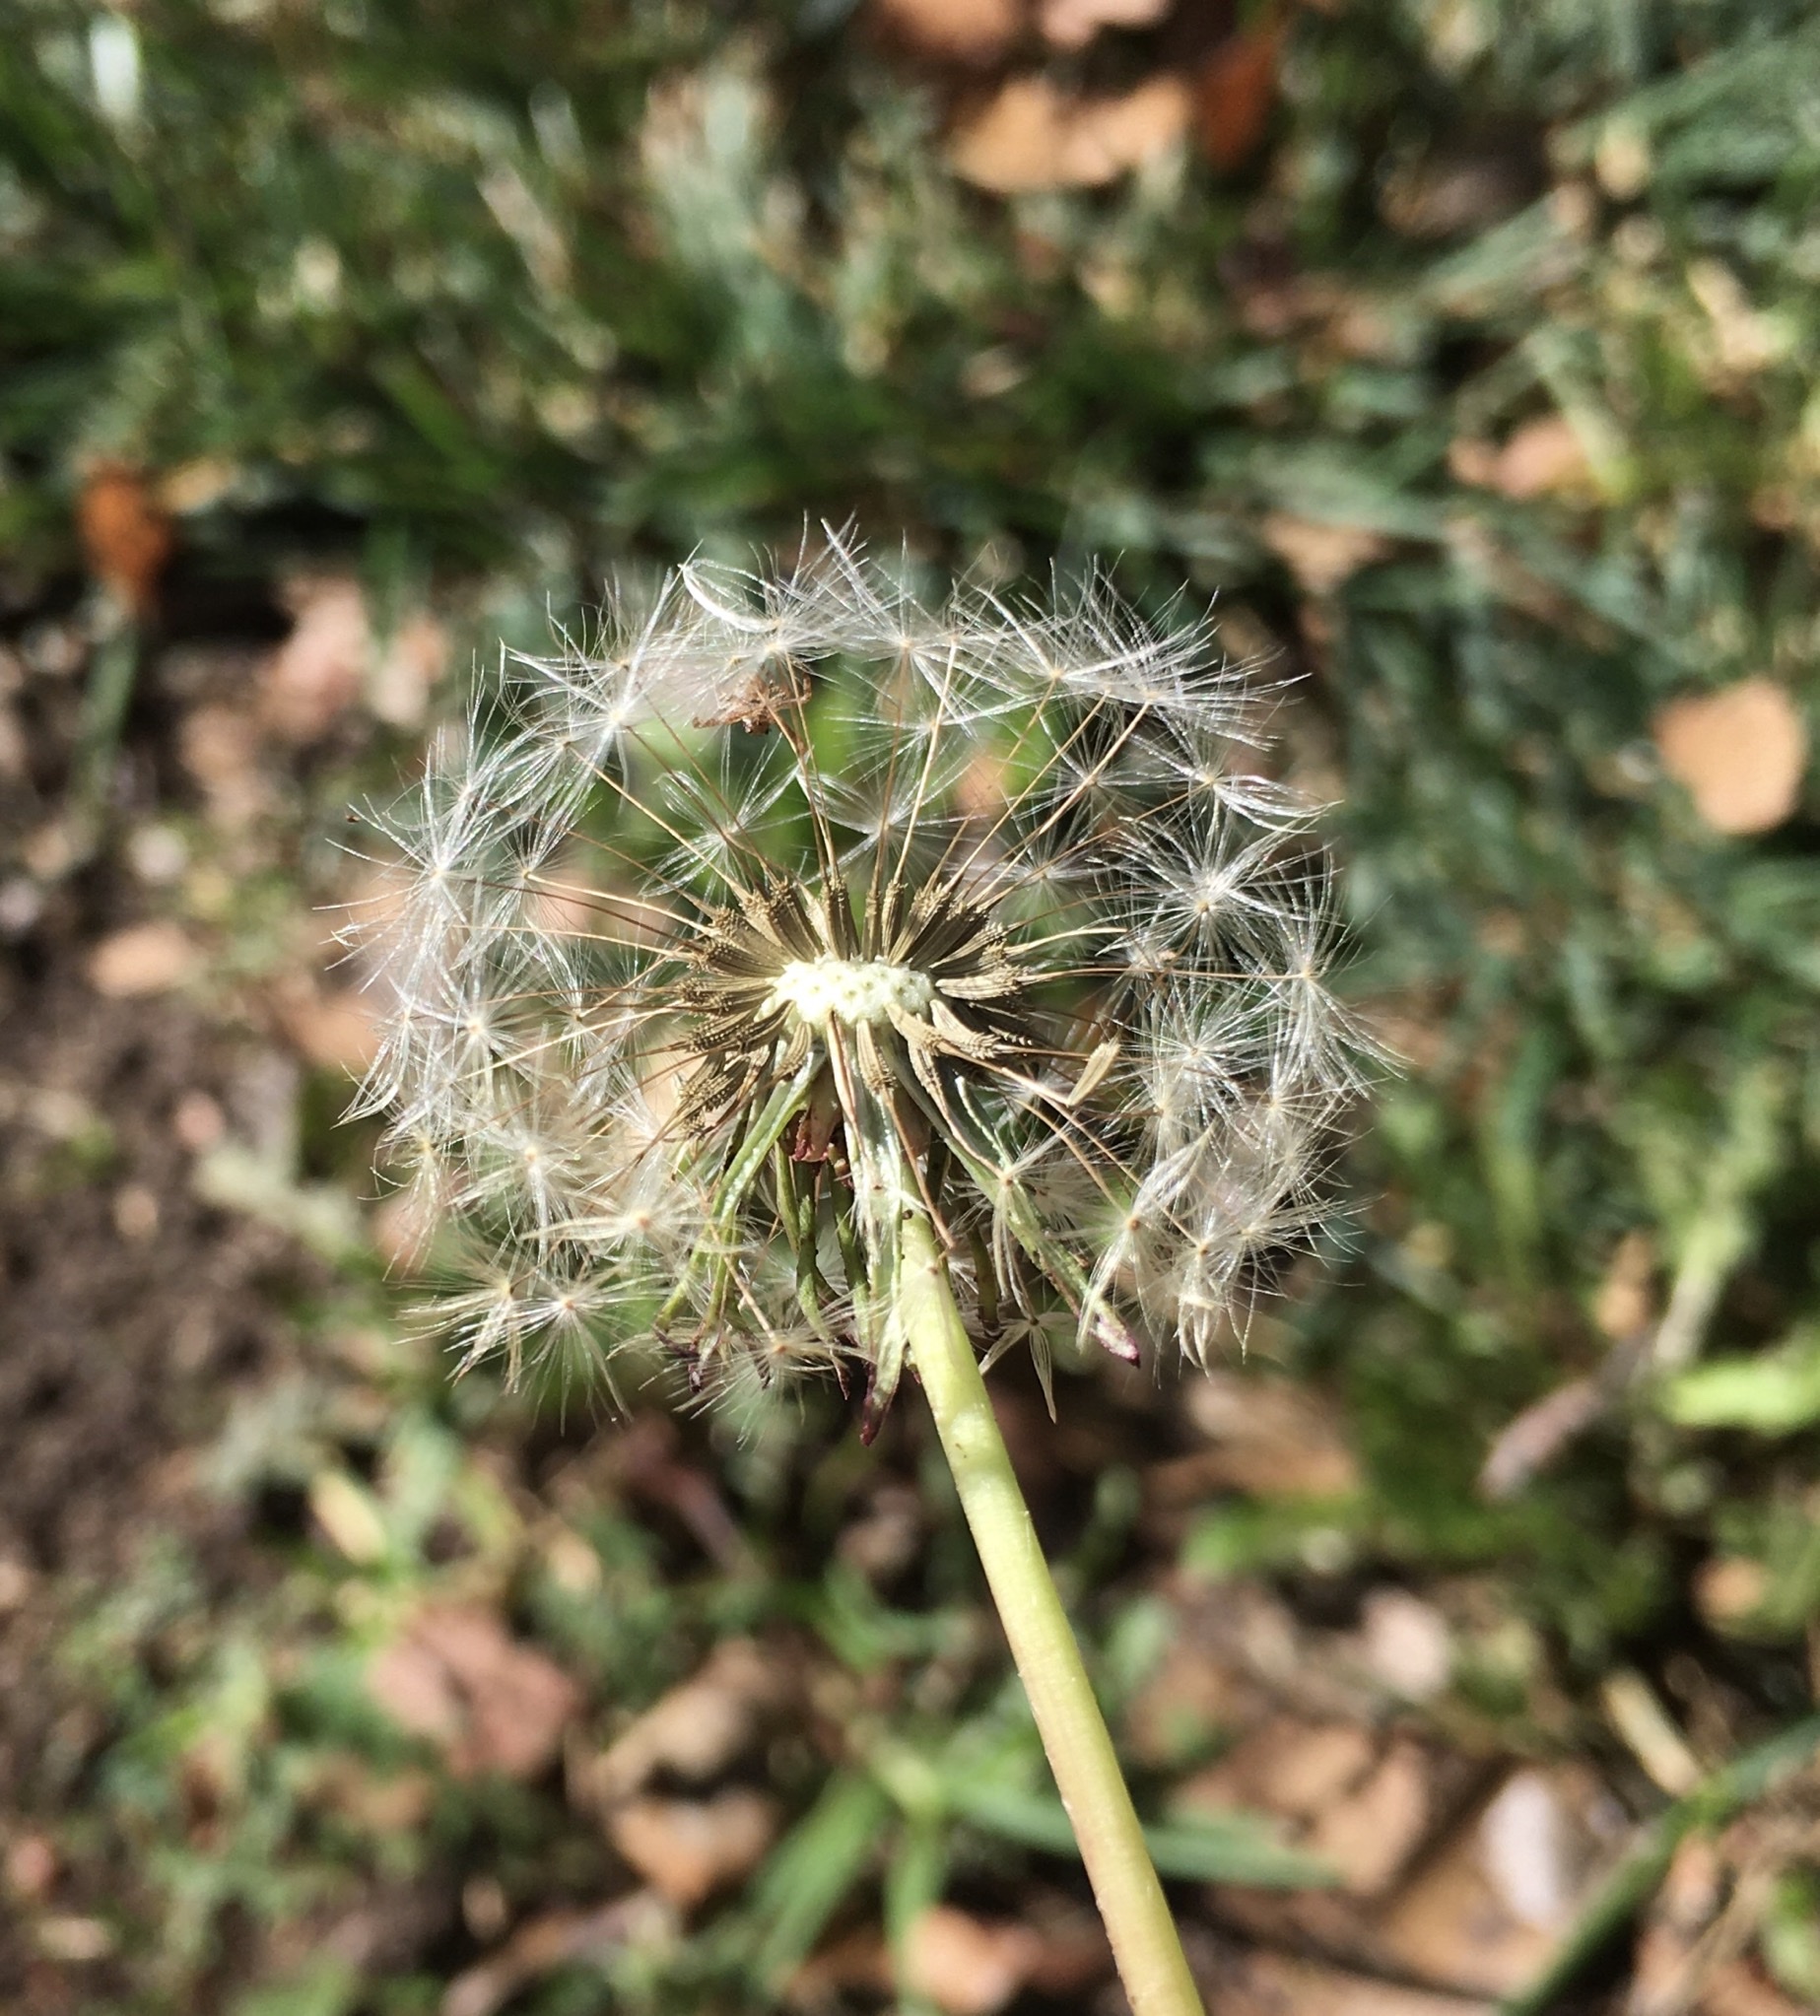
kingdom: Plantae
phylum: Tracheophyta
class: Magnoliopsida
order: Asterales
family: Asteraceae
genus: Taraxacum
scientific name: Taraxacum officinale
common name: Common dandelion
